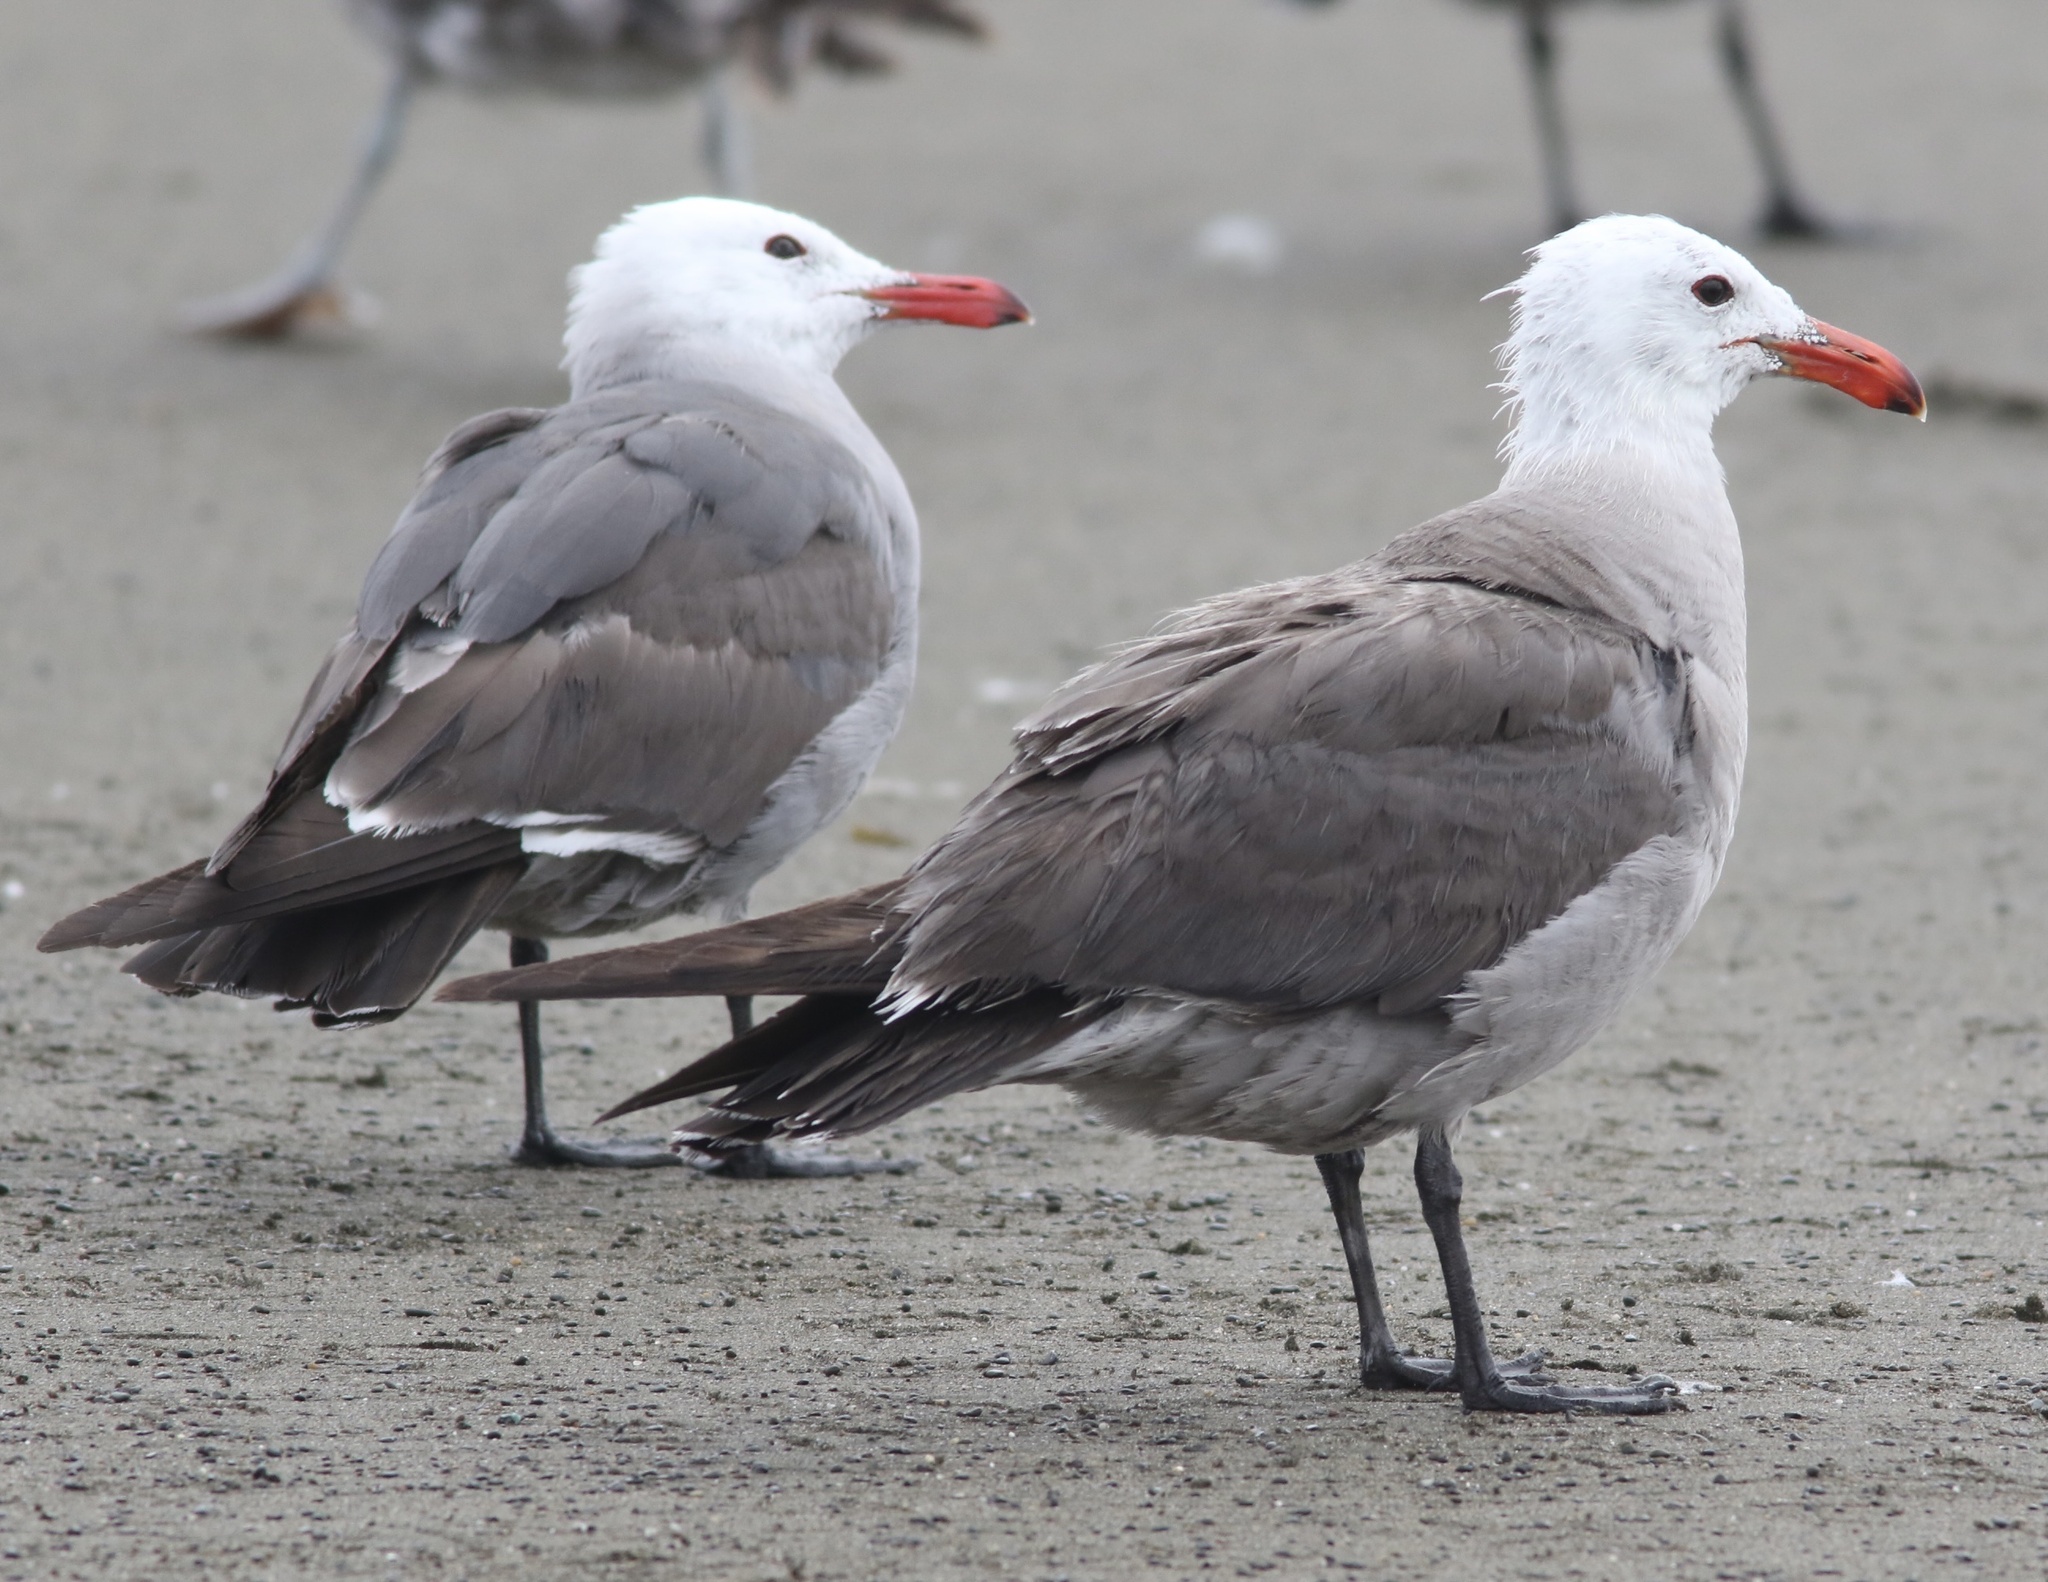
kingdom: Animalia
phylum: Chordata
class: Aves
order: Charadriiformes
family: Laridae
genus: Larus
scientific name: Larus heermanni
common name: Heermann's gull
